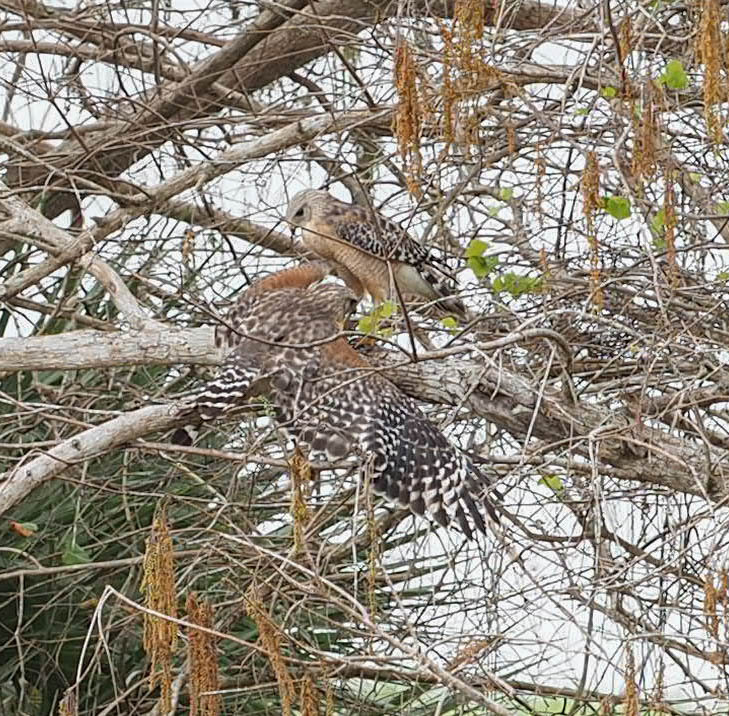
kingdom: Animalia
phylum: Chordata
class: Aves
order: Accipitriformes
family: Accipitridae
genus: Buteo
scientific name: Buteo lineatus
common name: Red-shouldered hawk
